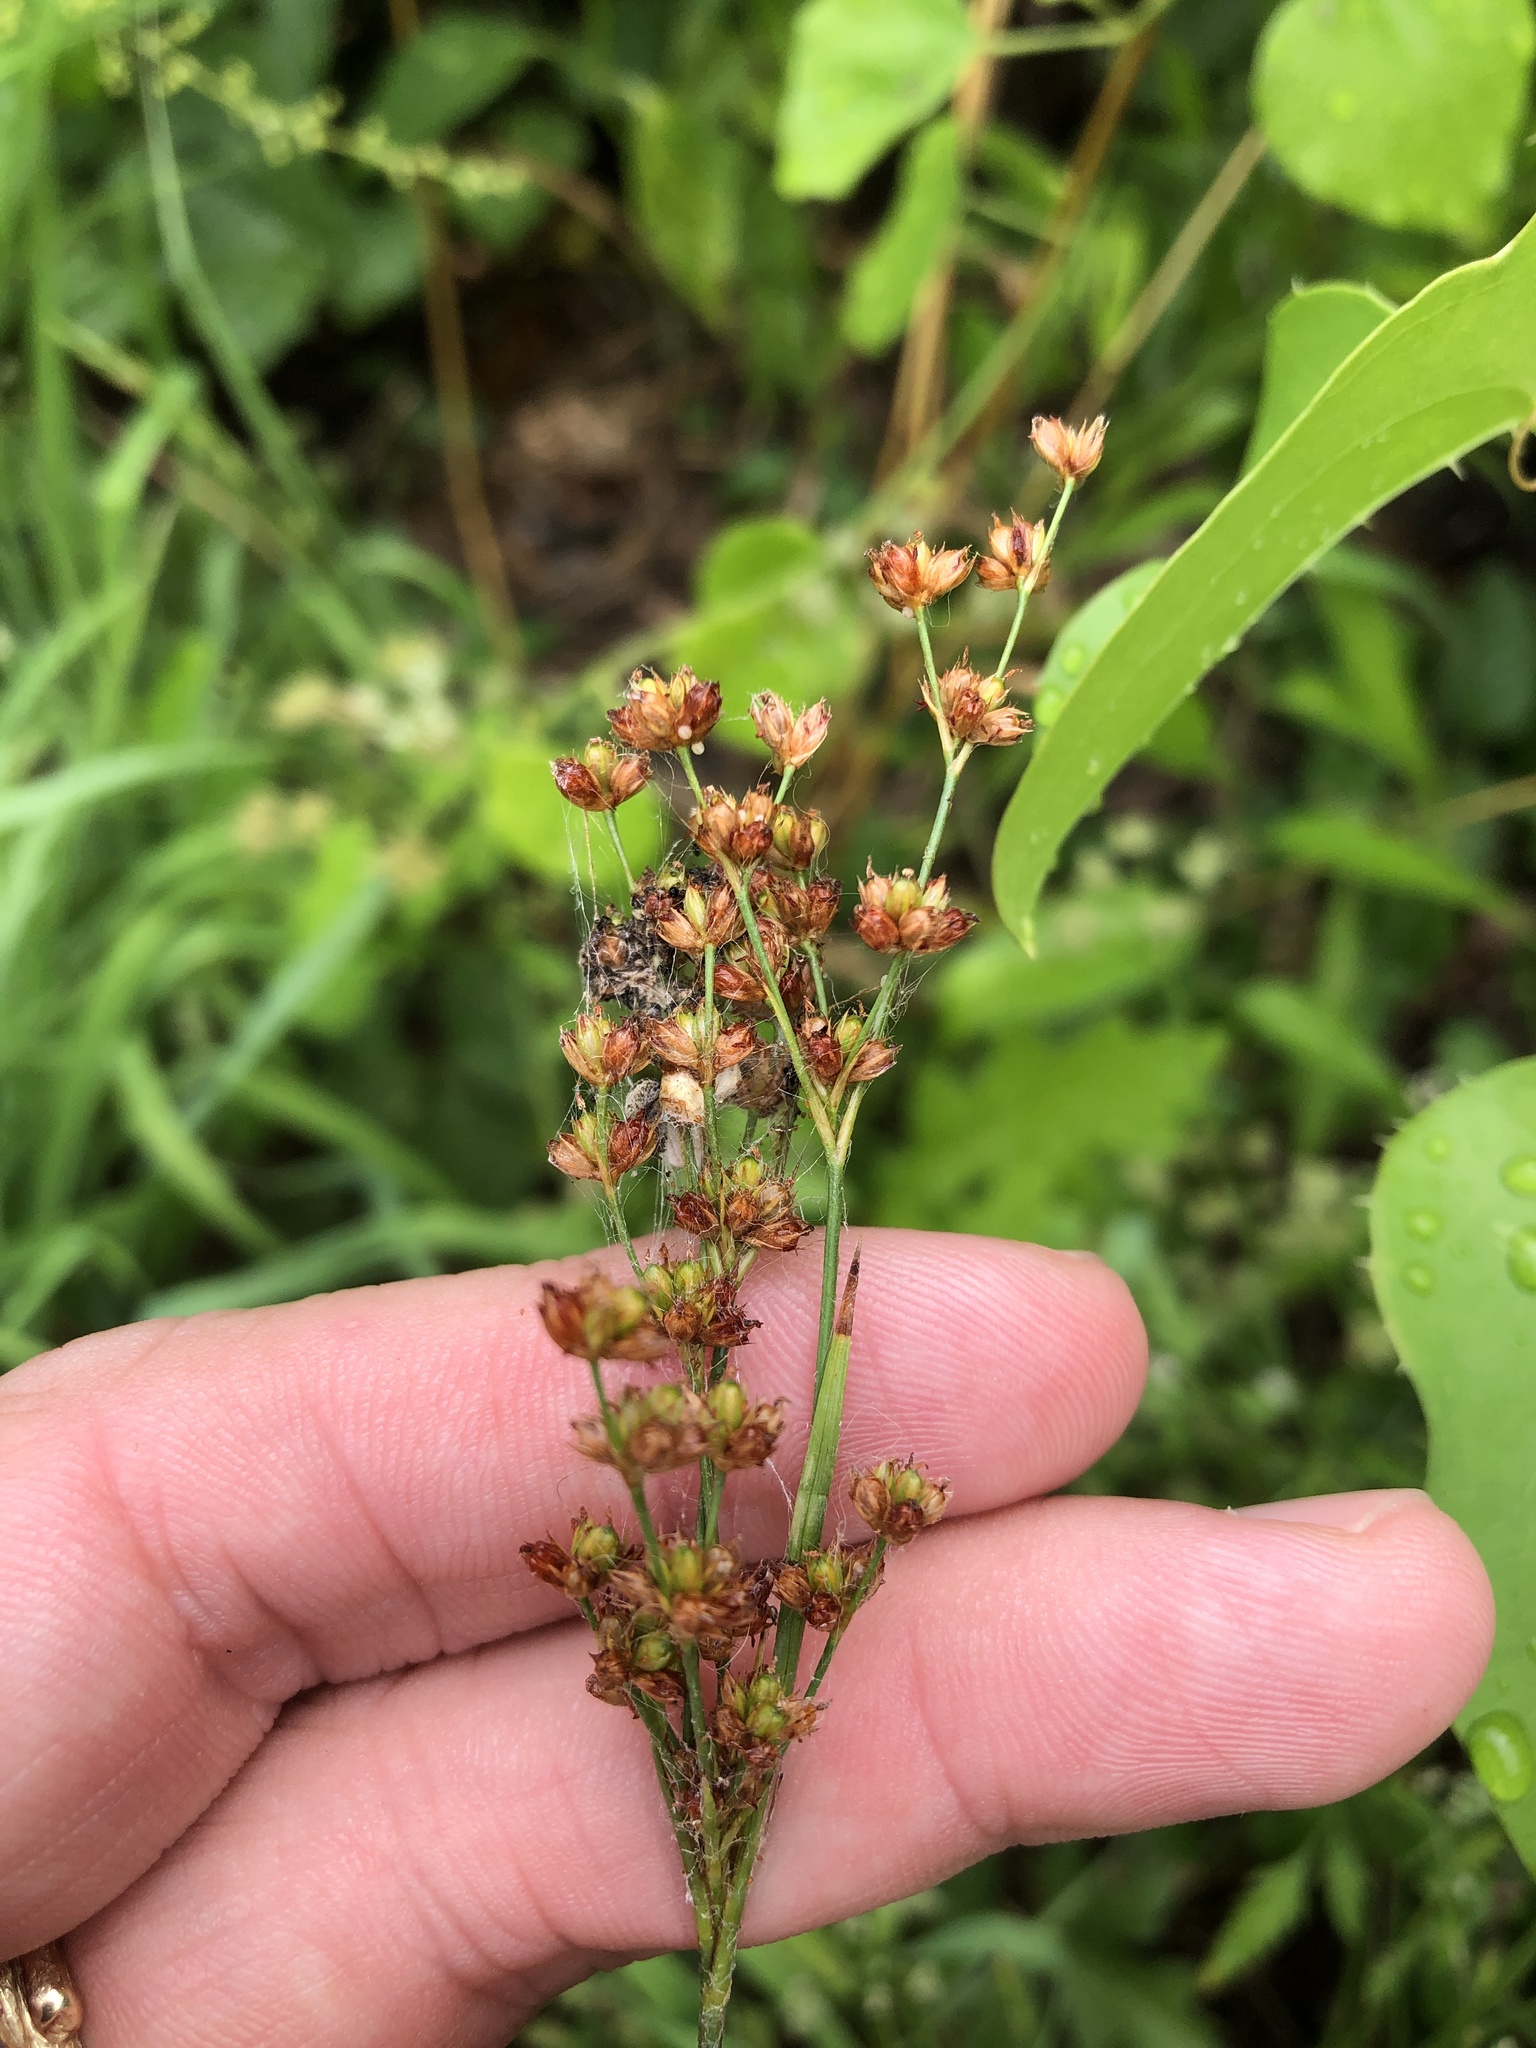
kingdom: Plantae
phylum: Tracheophyta
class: Liliopsida
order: Poales
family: Juncaceae
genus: Juncus
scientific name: Juncus marginatus
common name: Grass-leaf rush
